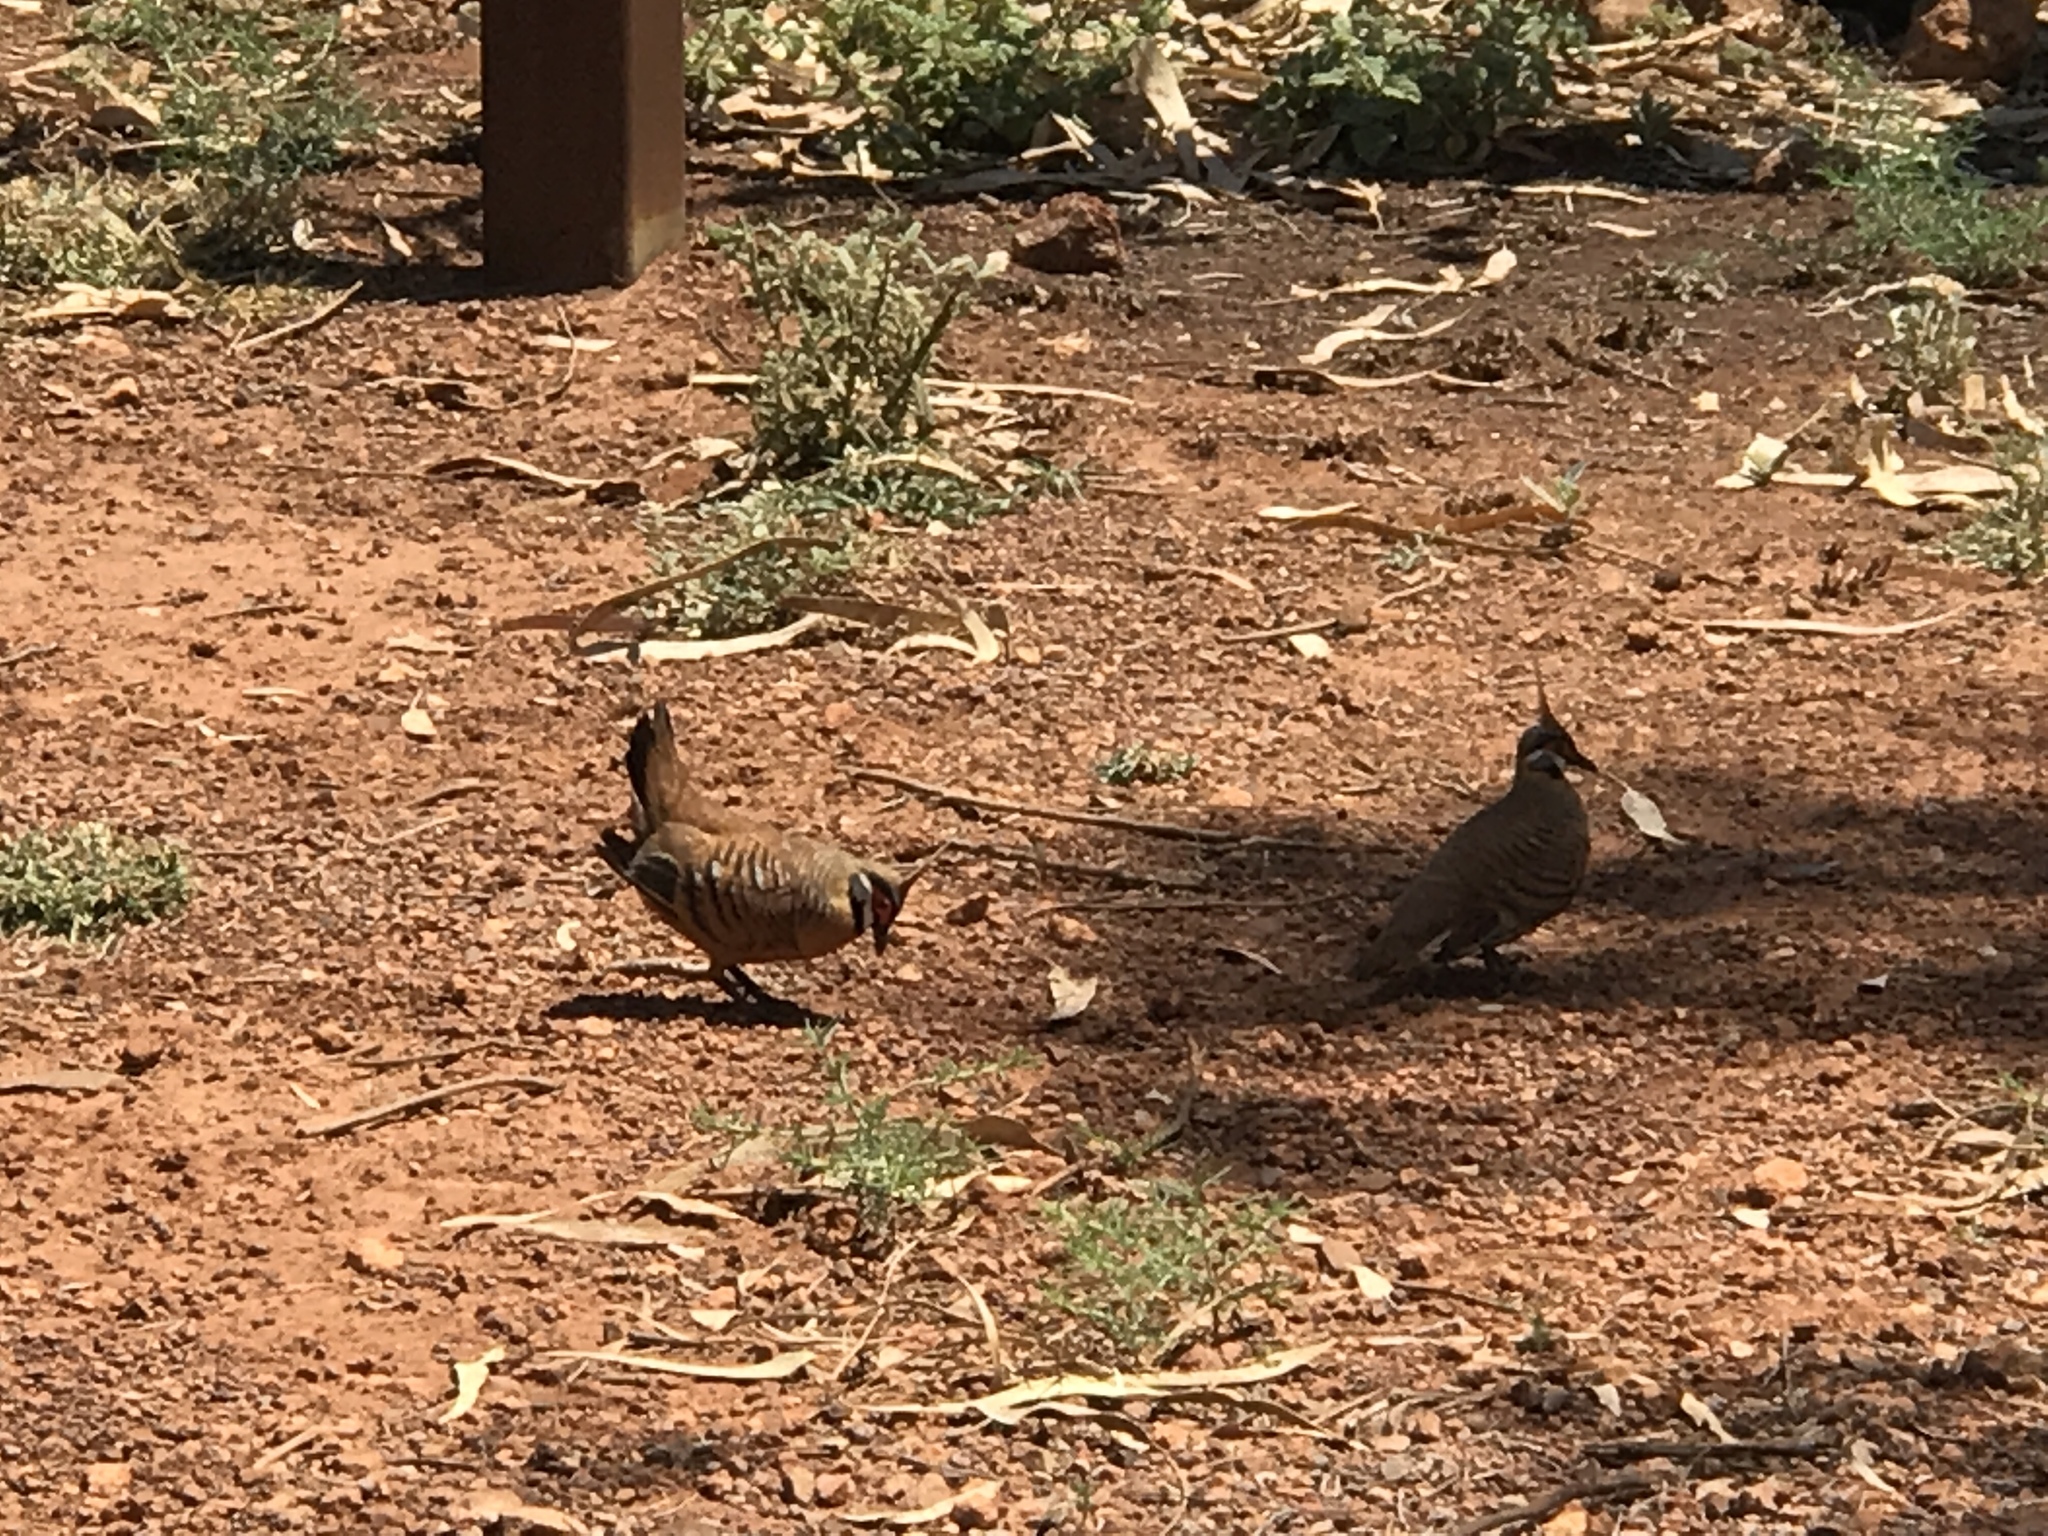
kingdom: Animalia
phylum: Chordata
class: Aves
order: Columbiformes
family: Columbidae
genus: Geophaps
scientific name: Geophaps plumifera
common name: Spinifex pigeon
